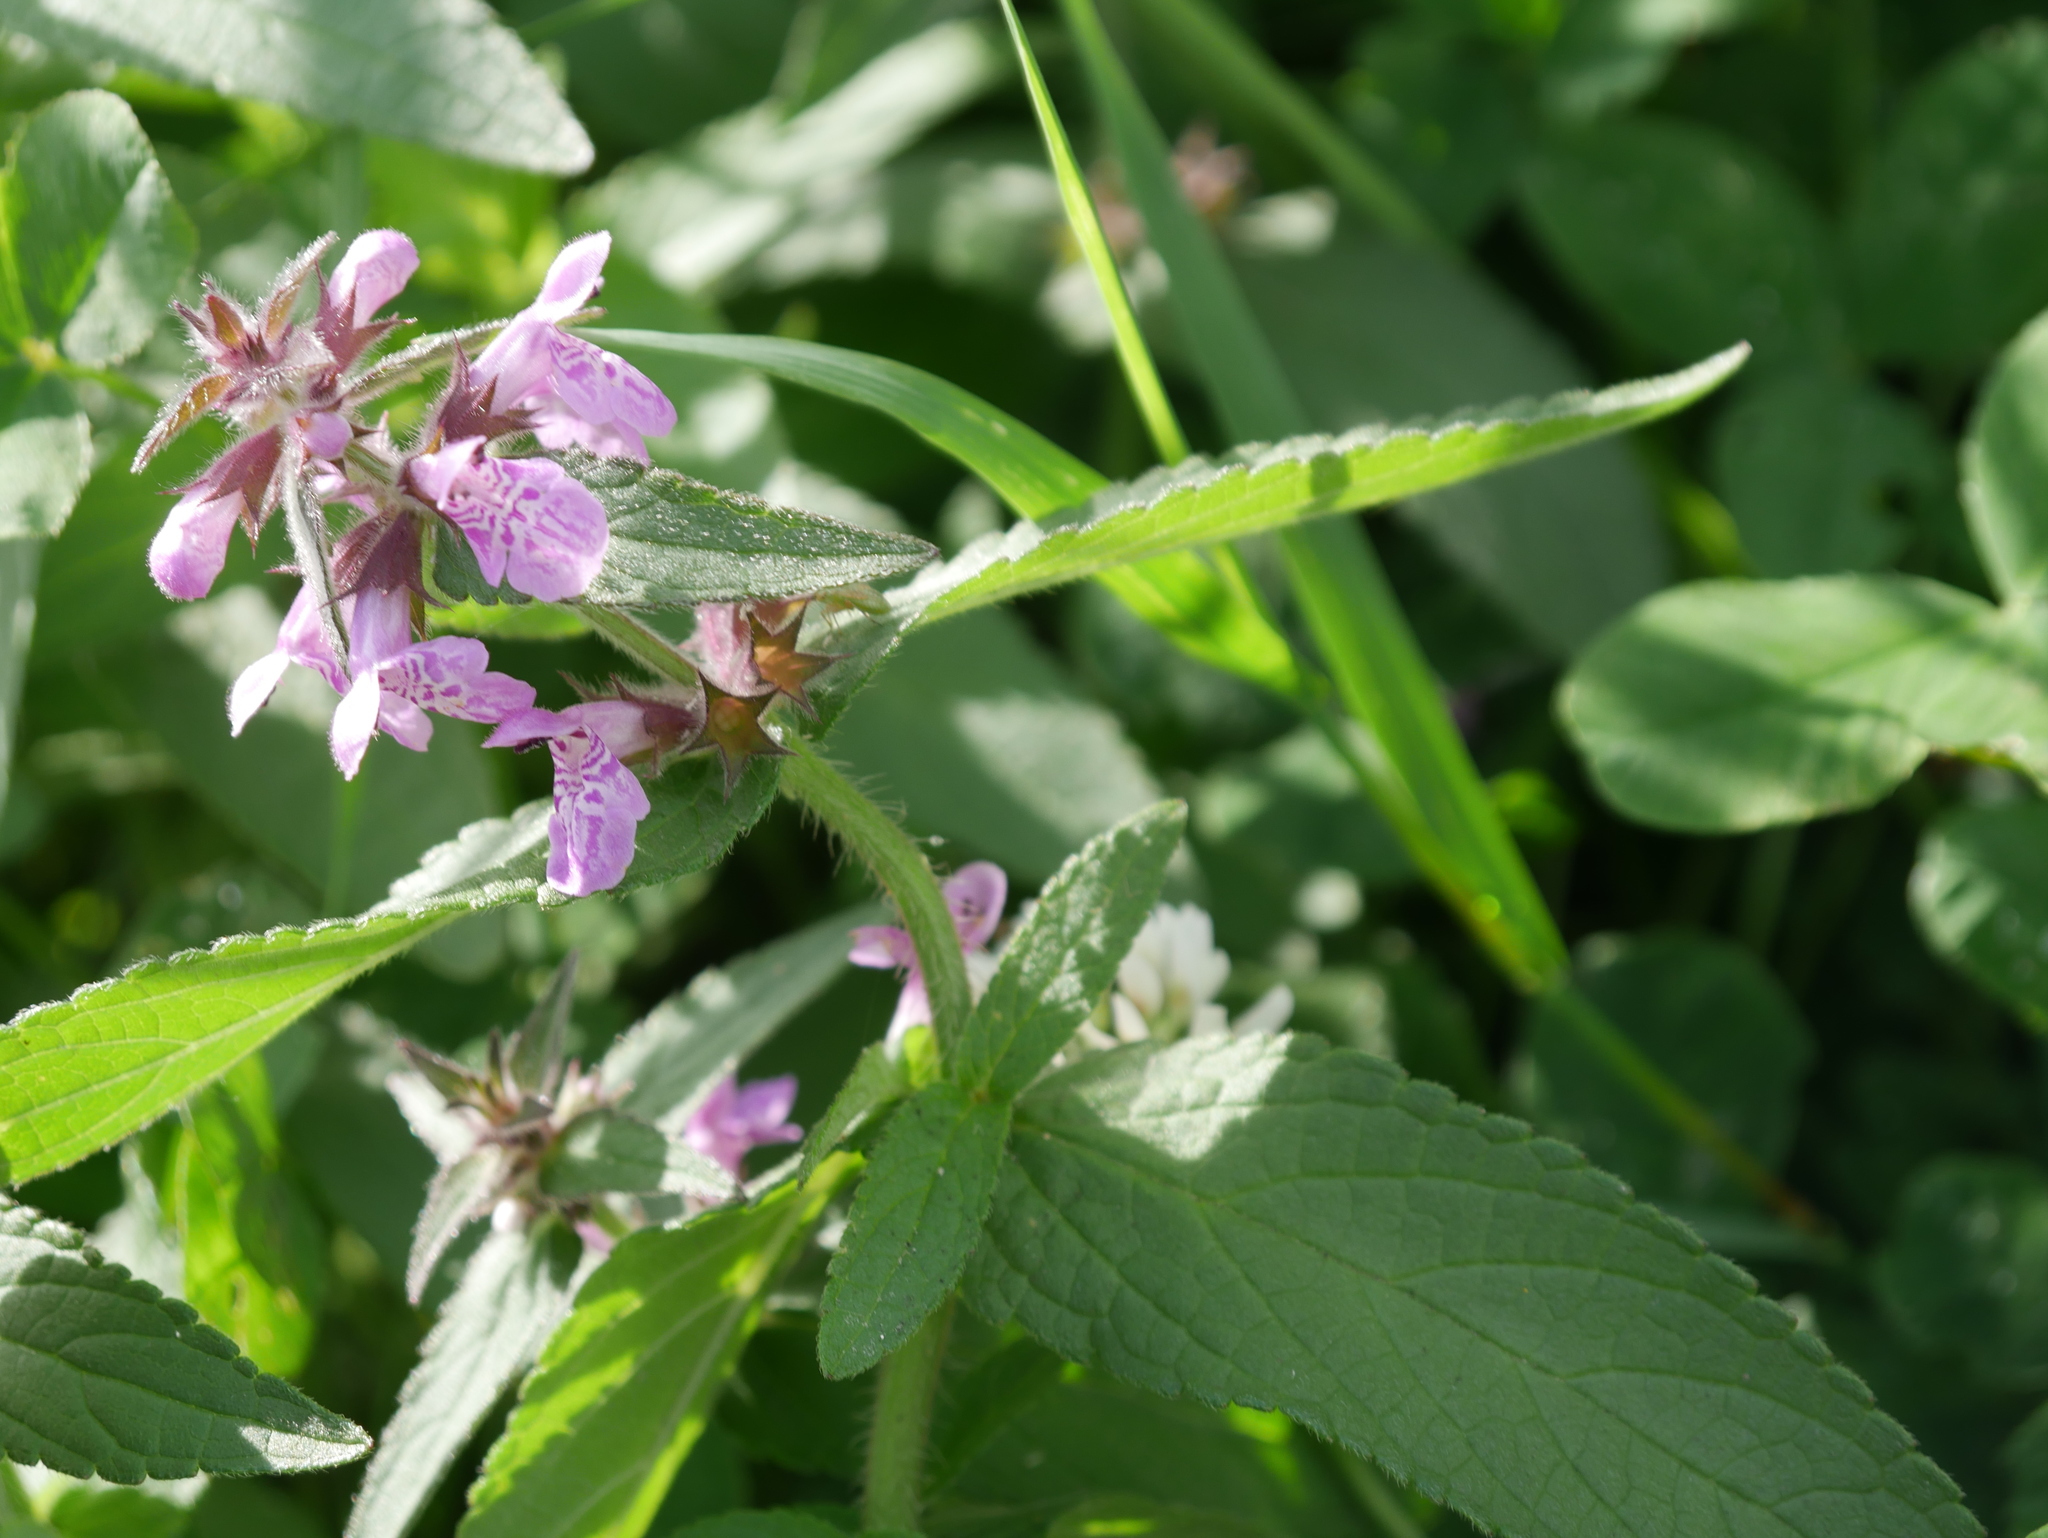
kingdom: Plantae
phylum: Tracheophyta
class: Magnoliopsida
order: Lamiales
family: Lamiaceae
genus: Stachys
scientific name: Stachys palustris
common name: Marsh woundwort
